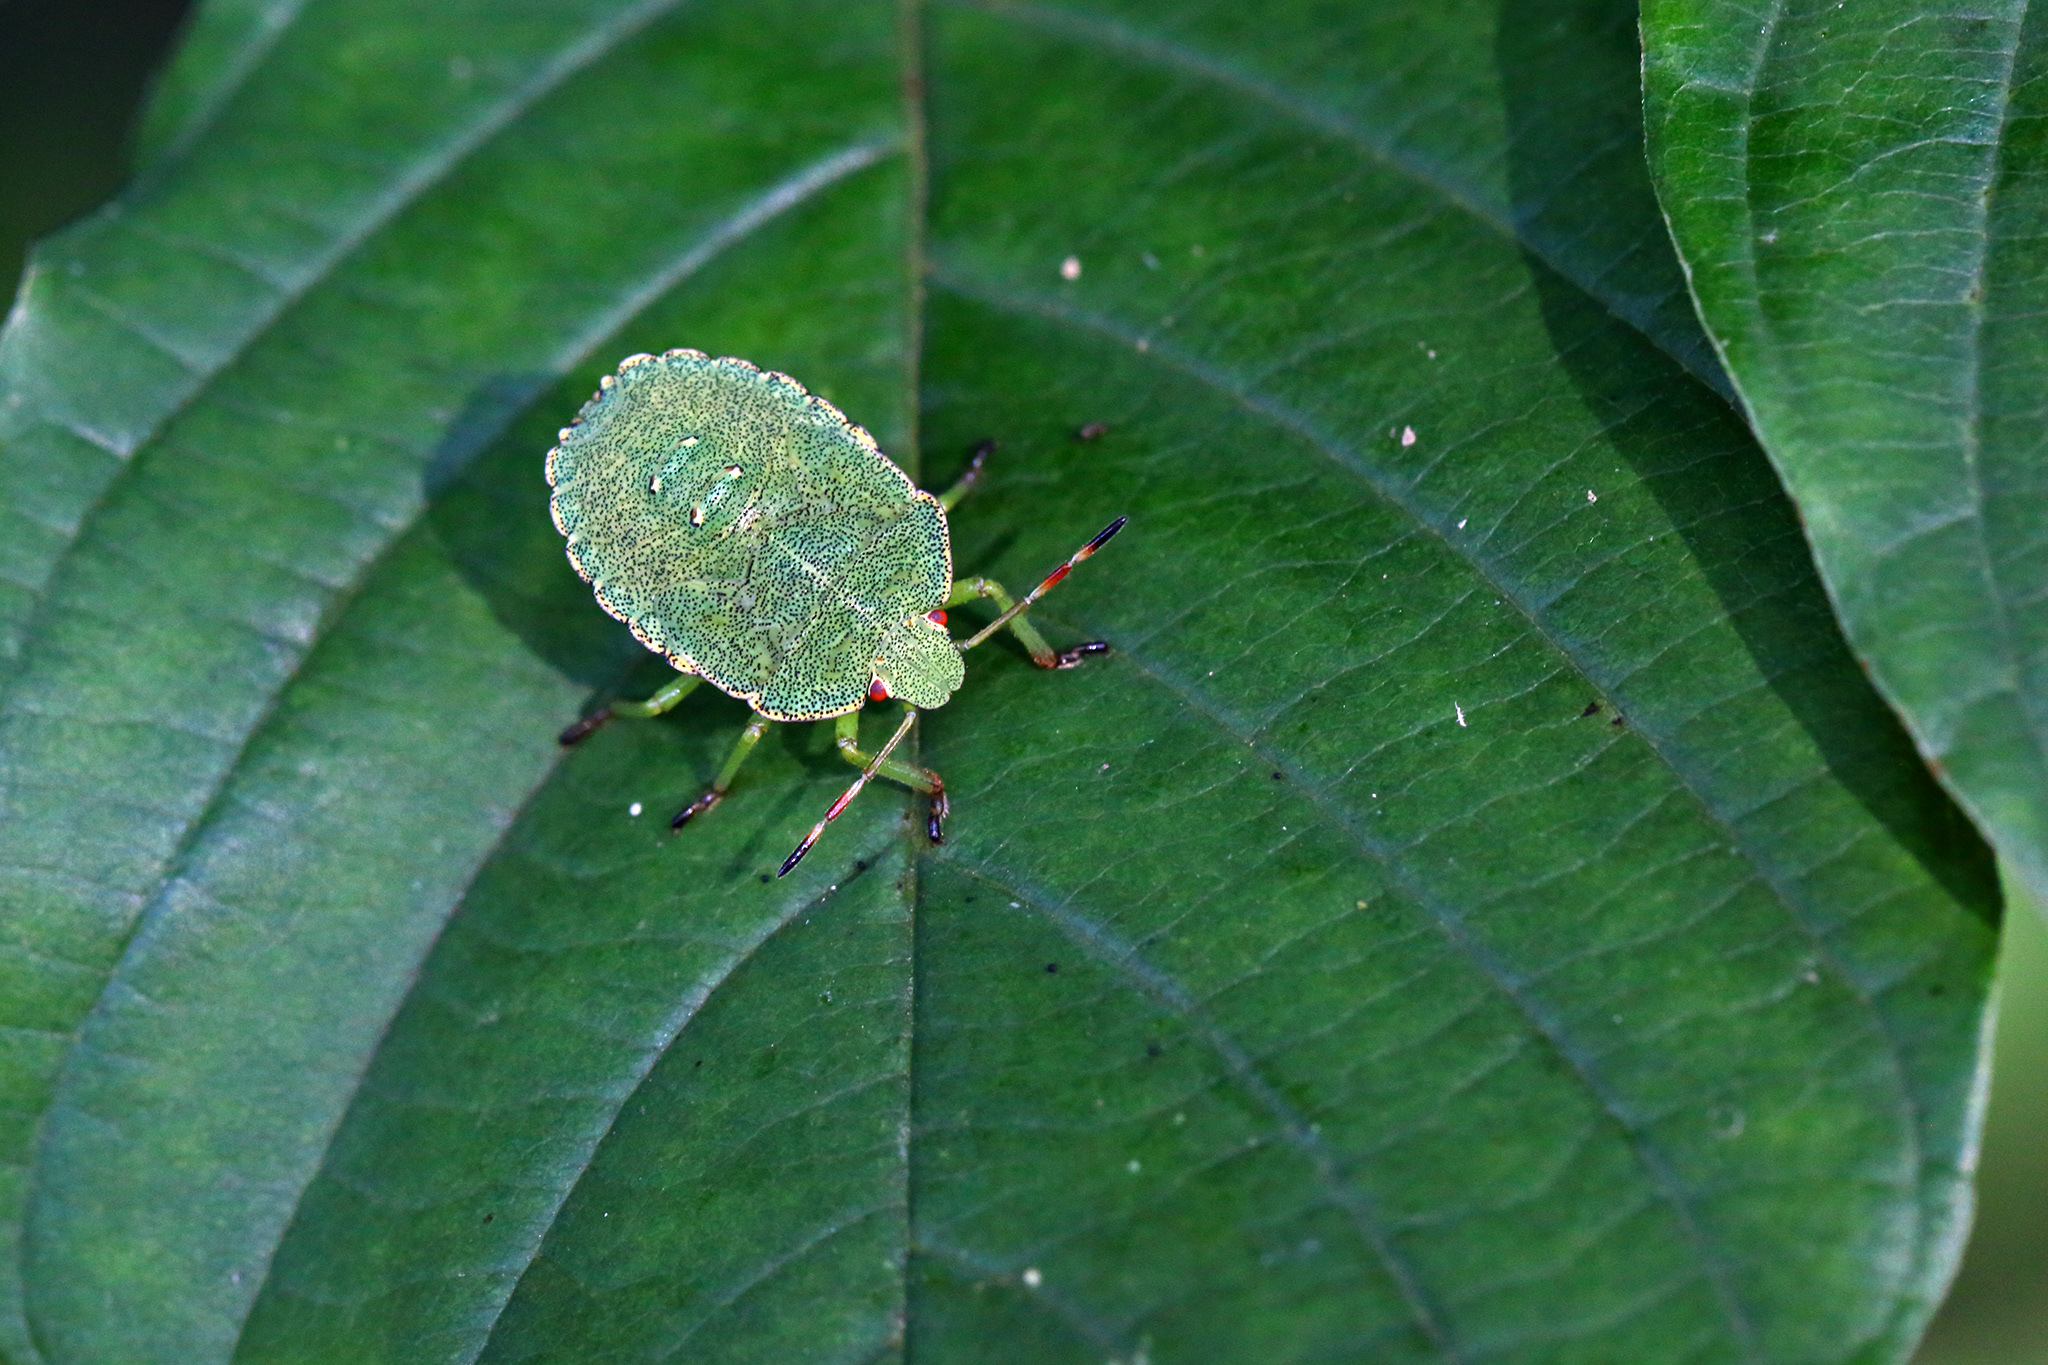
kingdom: Animalia
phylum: Arthropoda
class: Insecta
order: Hemiptera
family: Pentatomidae
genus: Palomena
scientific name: Palomena prasina
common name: Green shieldbug
